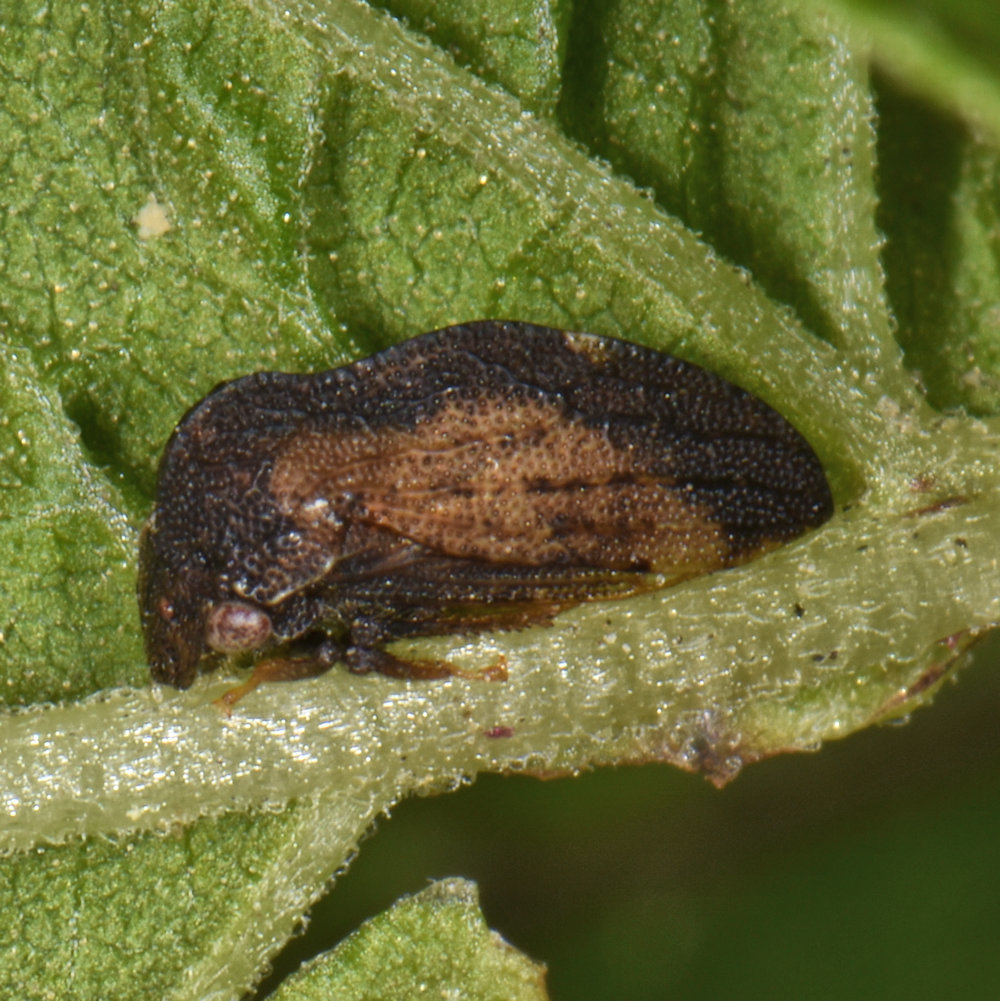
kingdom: Animalia
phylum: Arthropoda
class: Insecta
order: Hemiptera
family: Membracidae
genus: Publilia
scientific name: Publilia concava
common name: Aster treehopper
